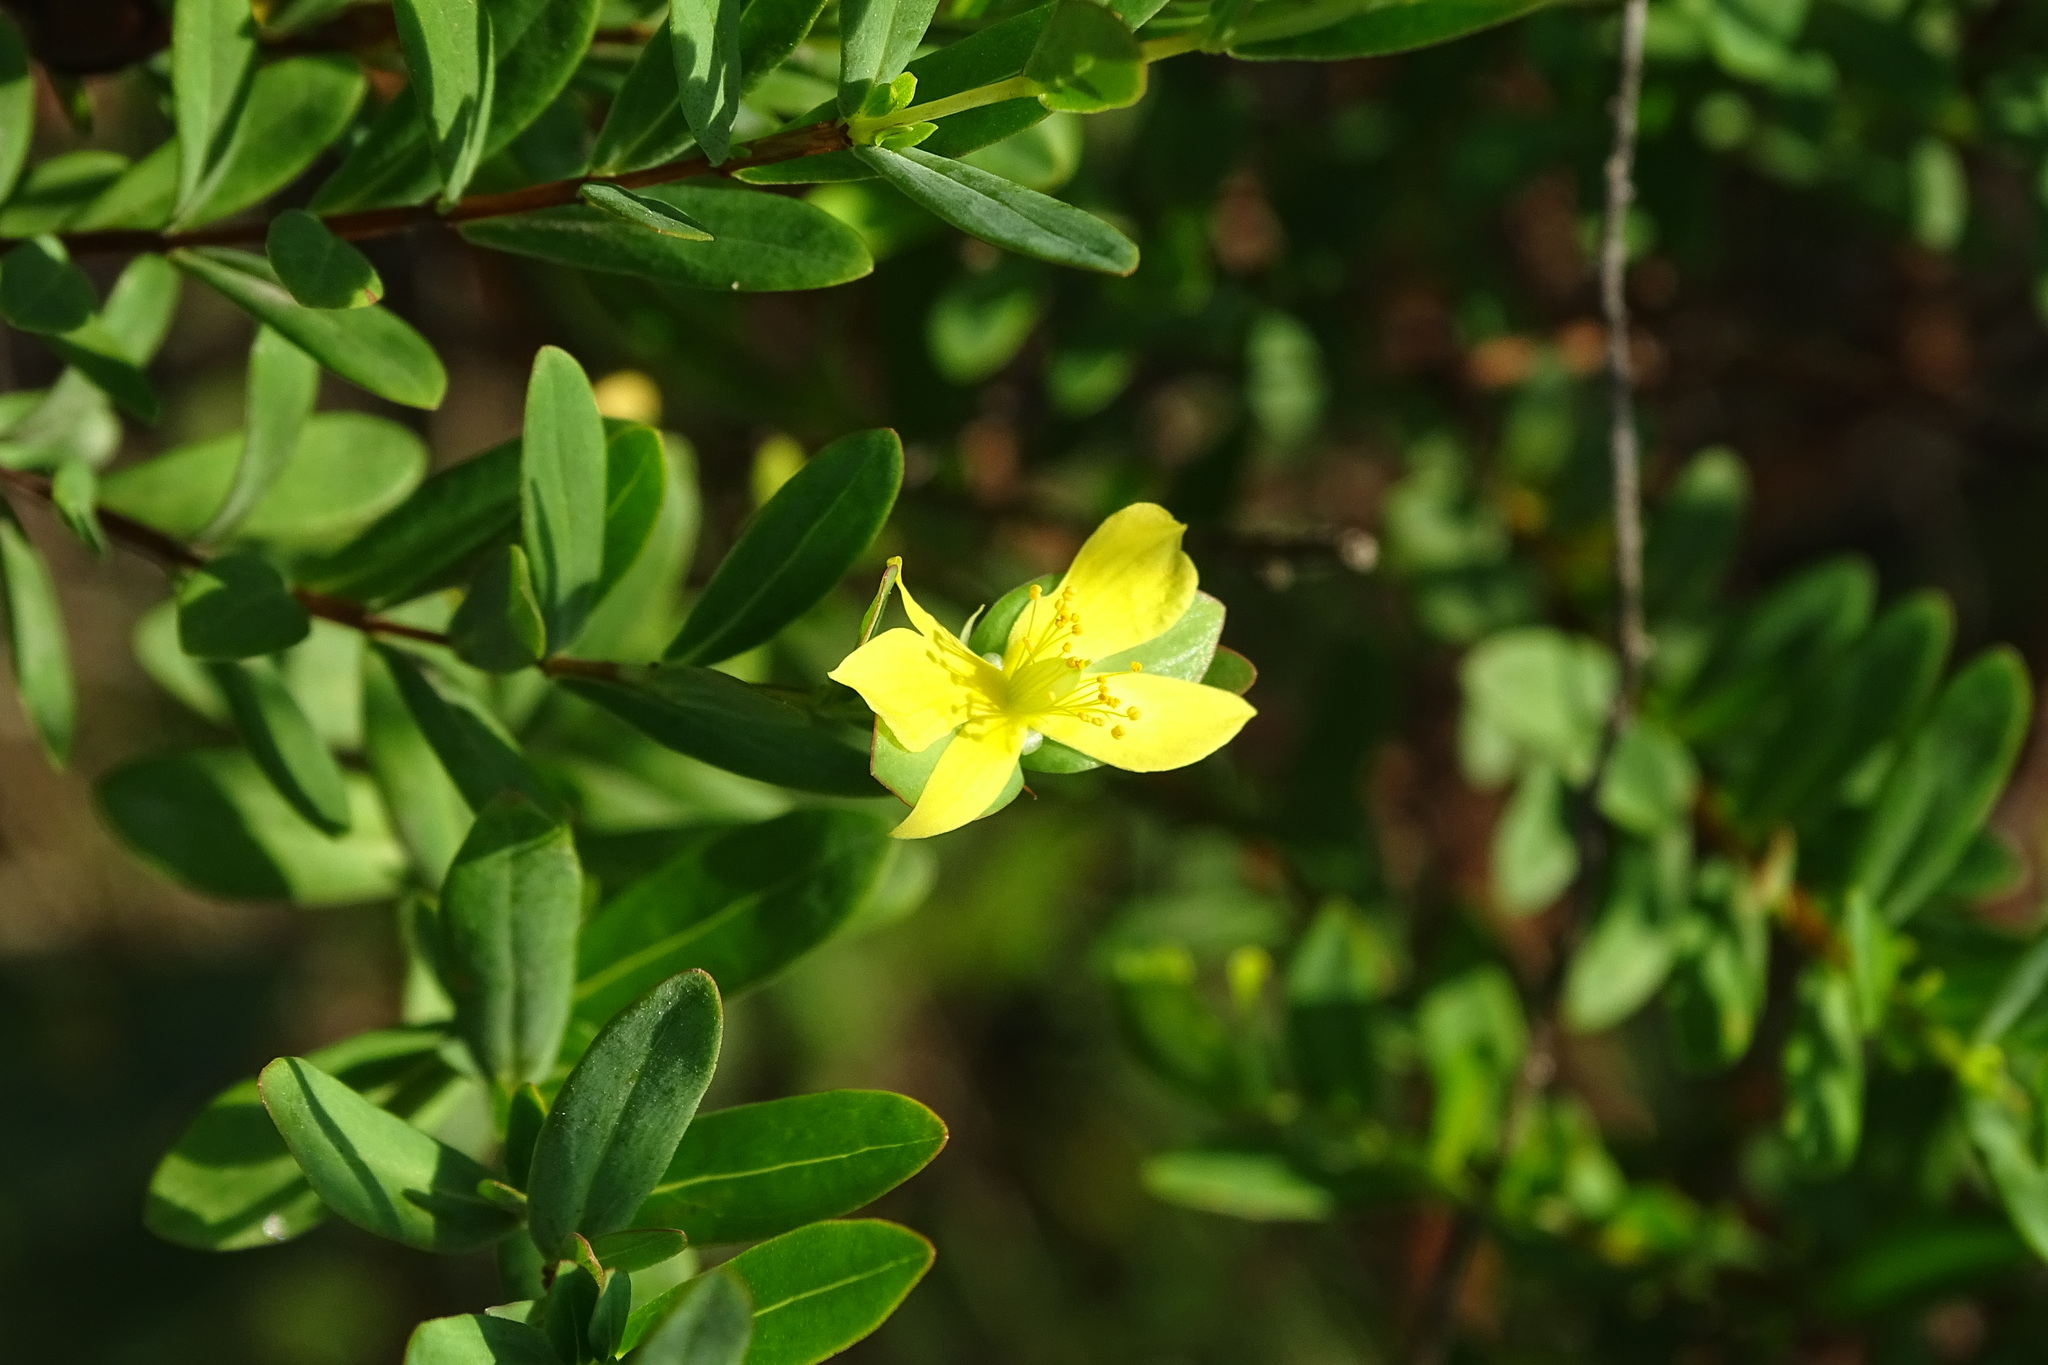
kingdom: Plantae
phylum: Tracheophyta
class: Magnoliopsida
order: Malpighiales
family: Hypericaceae
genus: Hypericum
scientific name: Hypericum hypericoides
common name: St. andrew's cross
